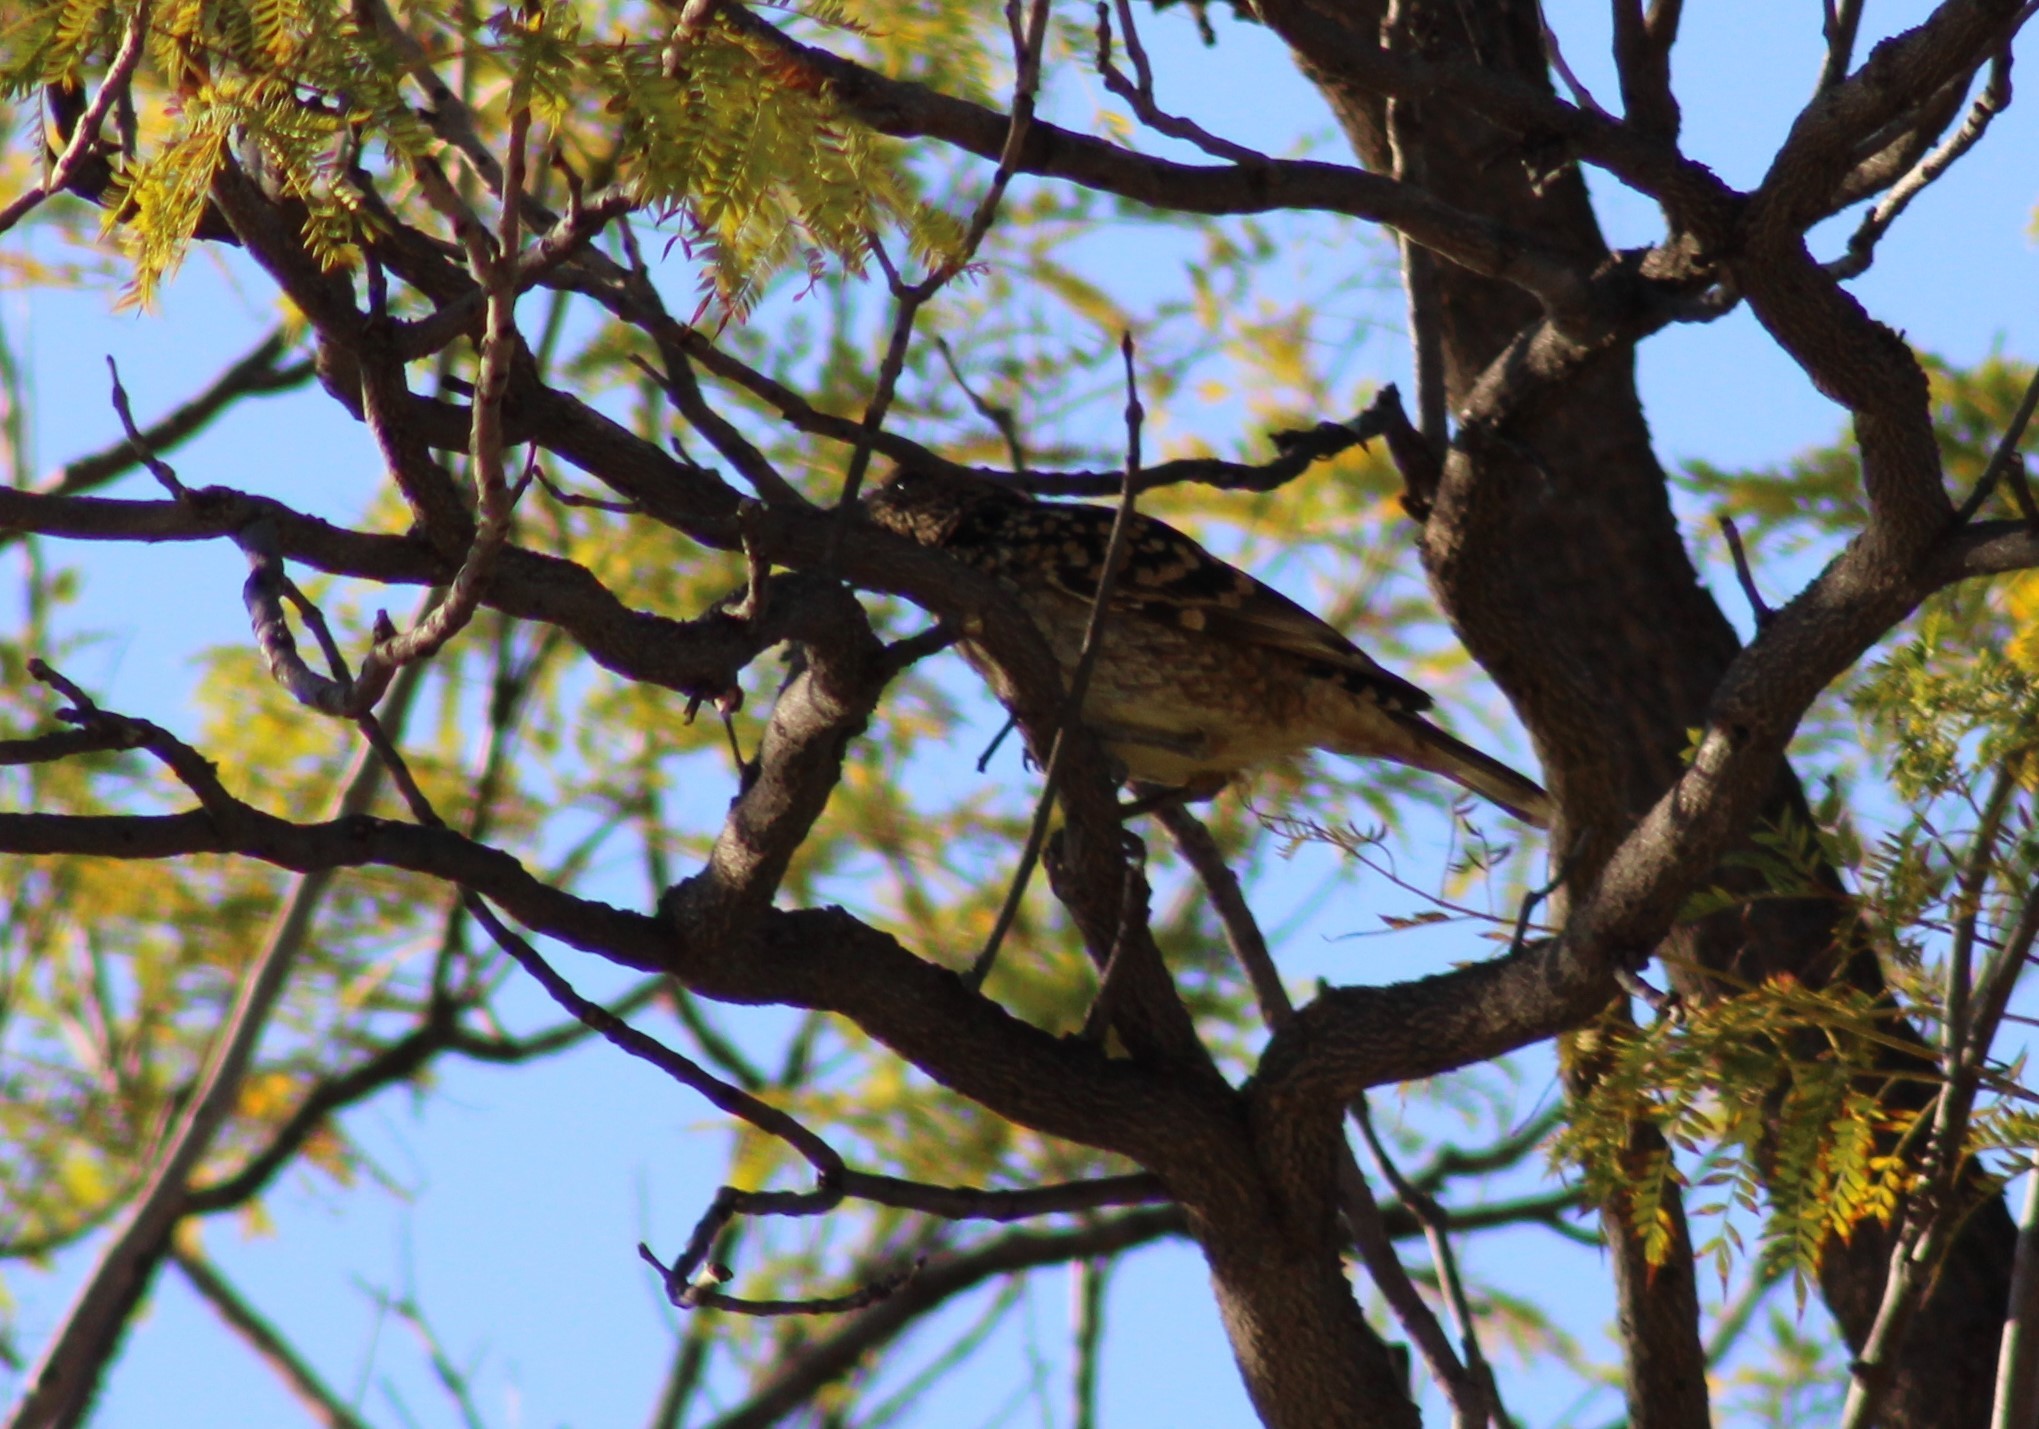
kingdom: Animalia
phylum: Chordata
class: Aves
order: Passeriformes
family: Ptilonorhynchidae
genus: Chlamydera
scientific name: Chlamydera guttata
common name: Western bowerbird
